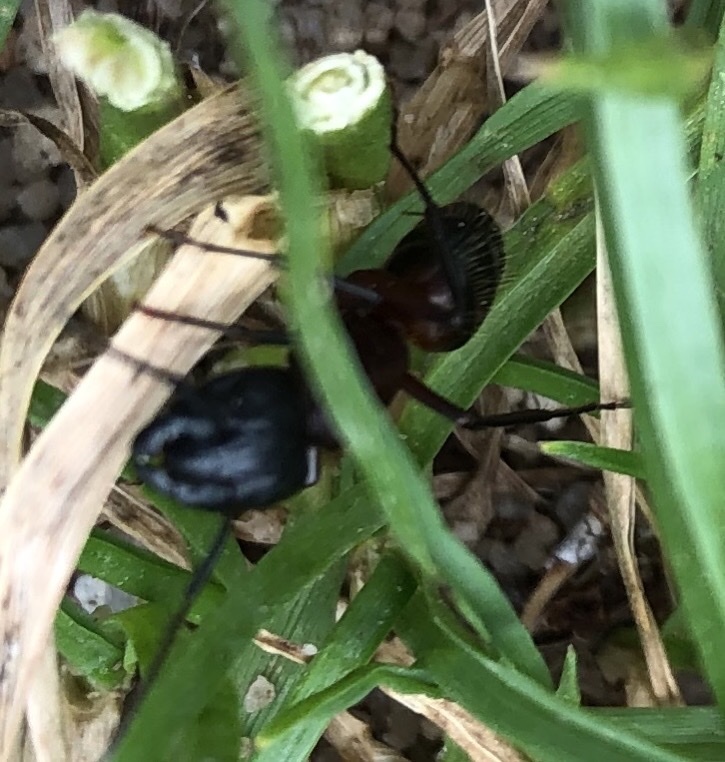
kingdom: Animalia
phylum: Arthropoda
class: Insecta
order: Hymenoptera
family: Formicidae
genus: Camponotus
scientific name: Camponotus ligniperdus
